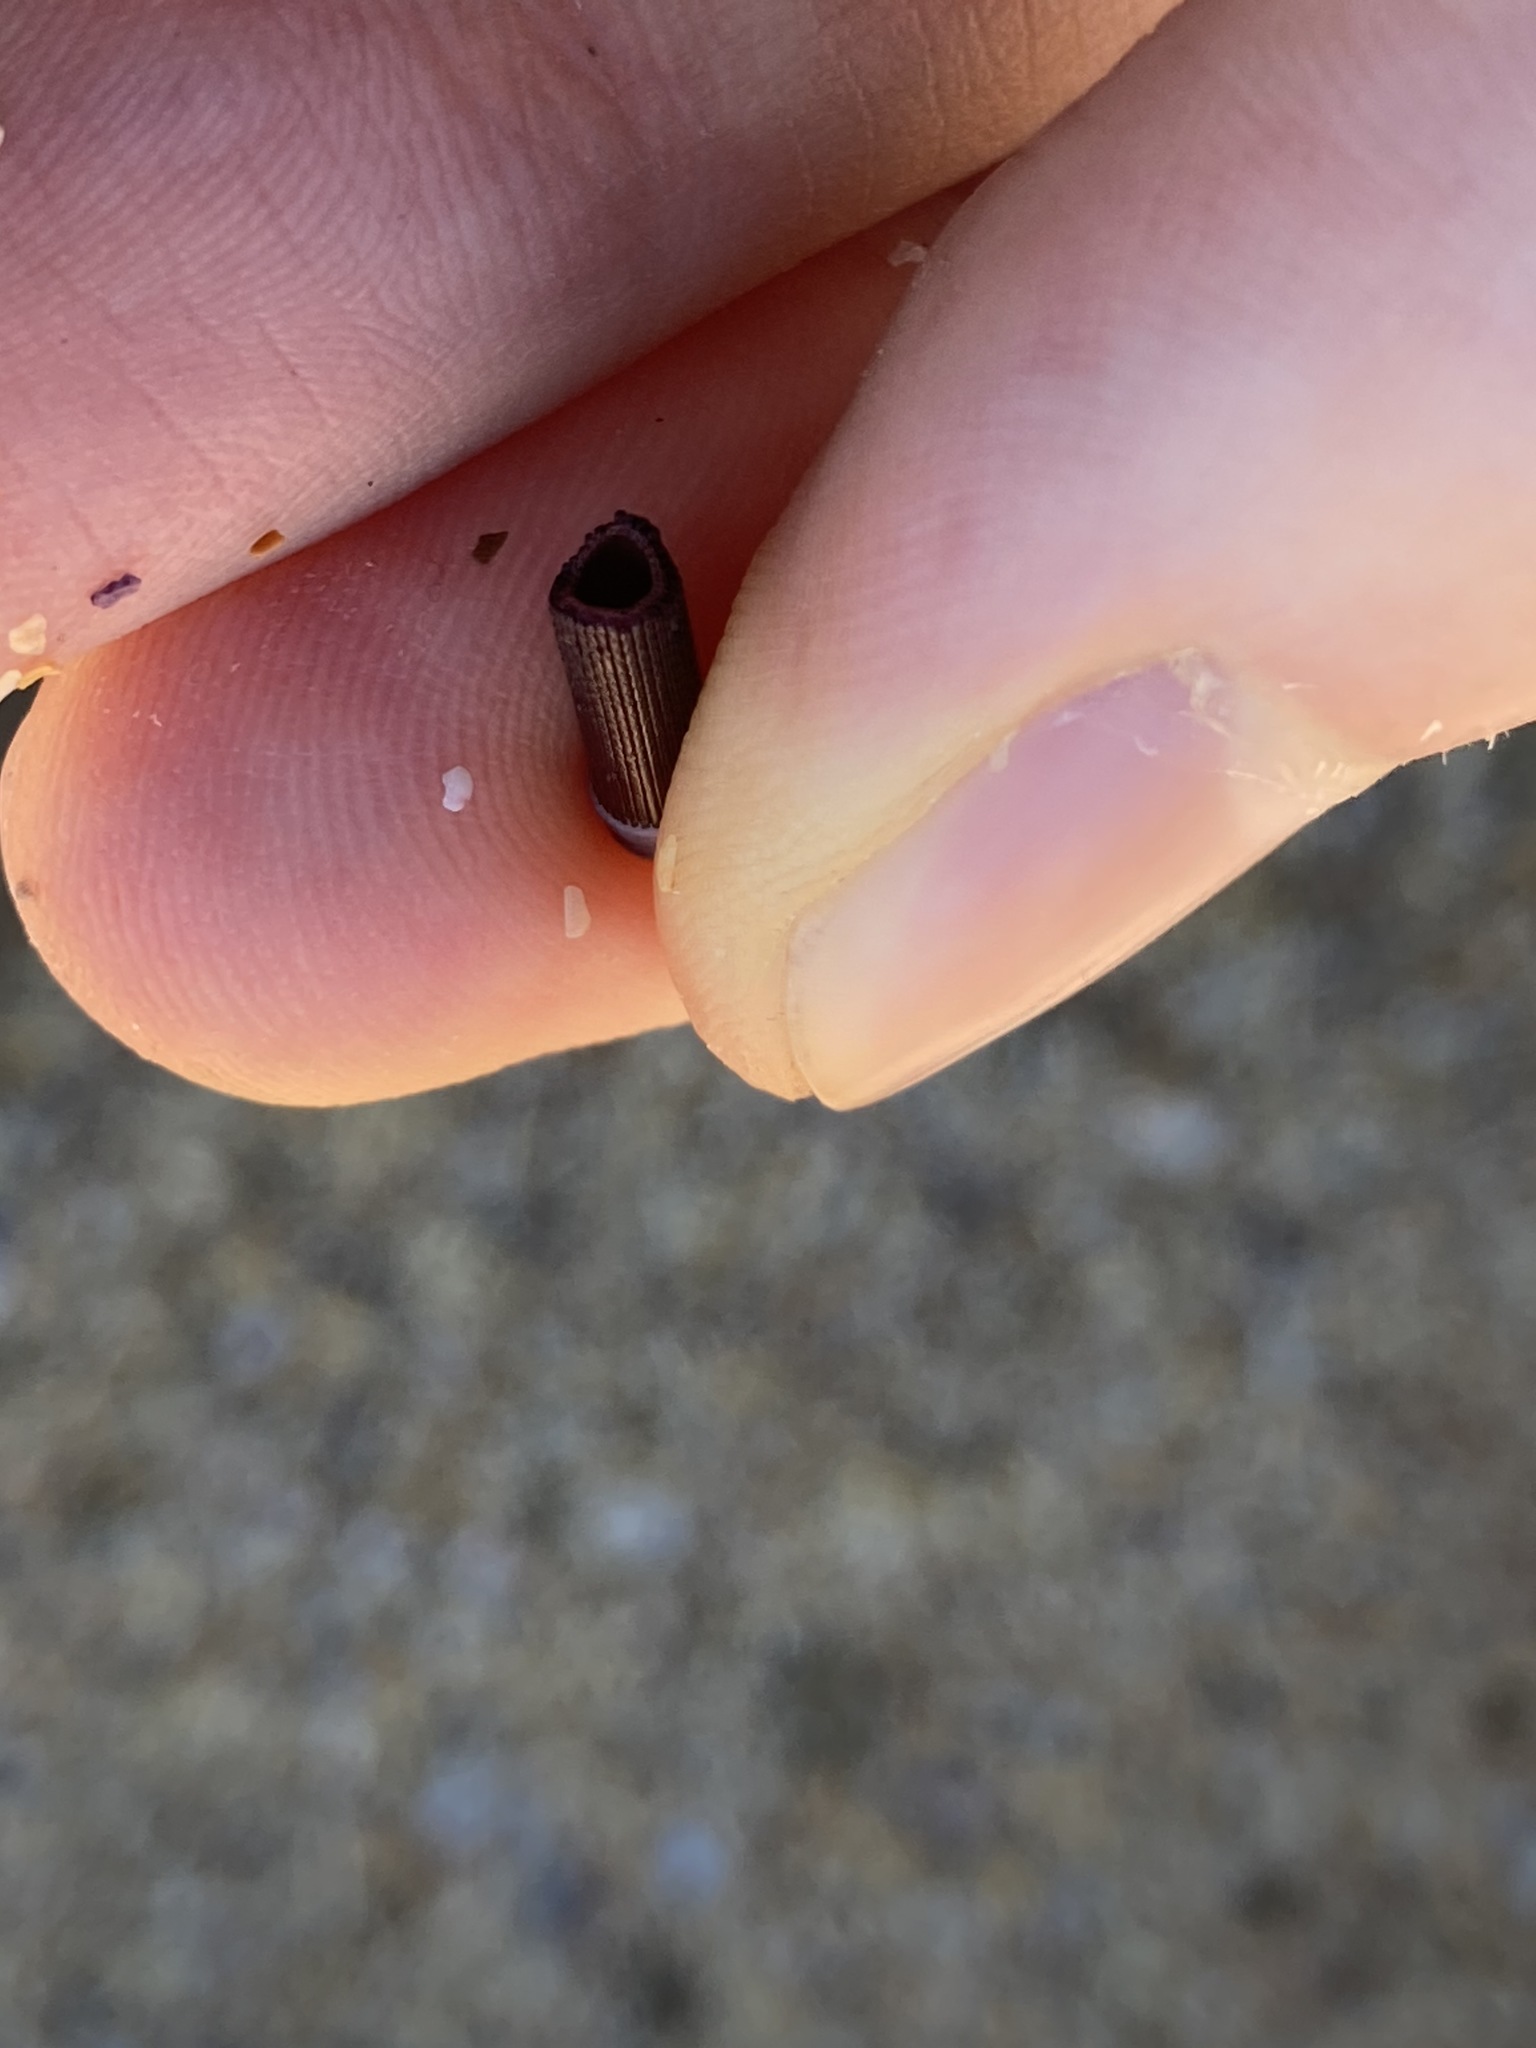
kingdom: Animalia
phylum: Echinodermata
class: Echinoidea
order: Diadematoida
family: Diadematidae
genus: Centrostephanus
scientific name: Centrostephanus rodgersii
